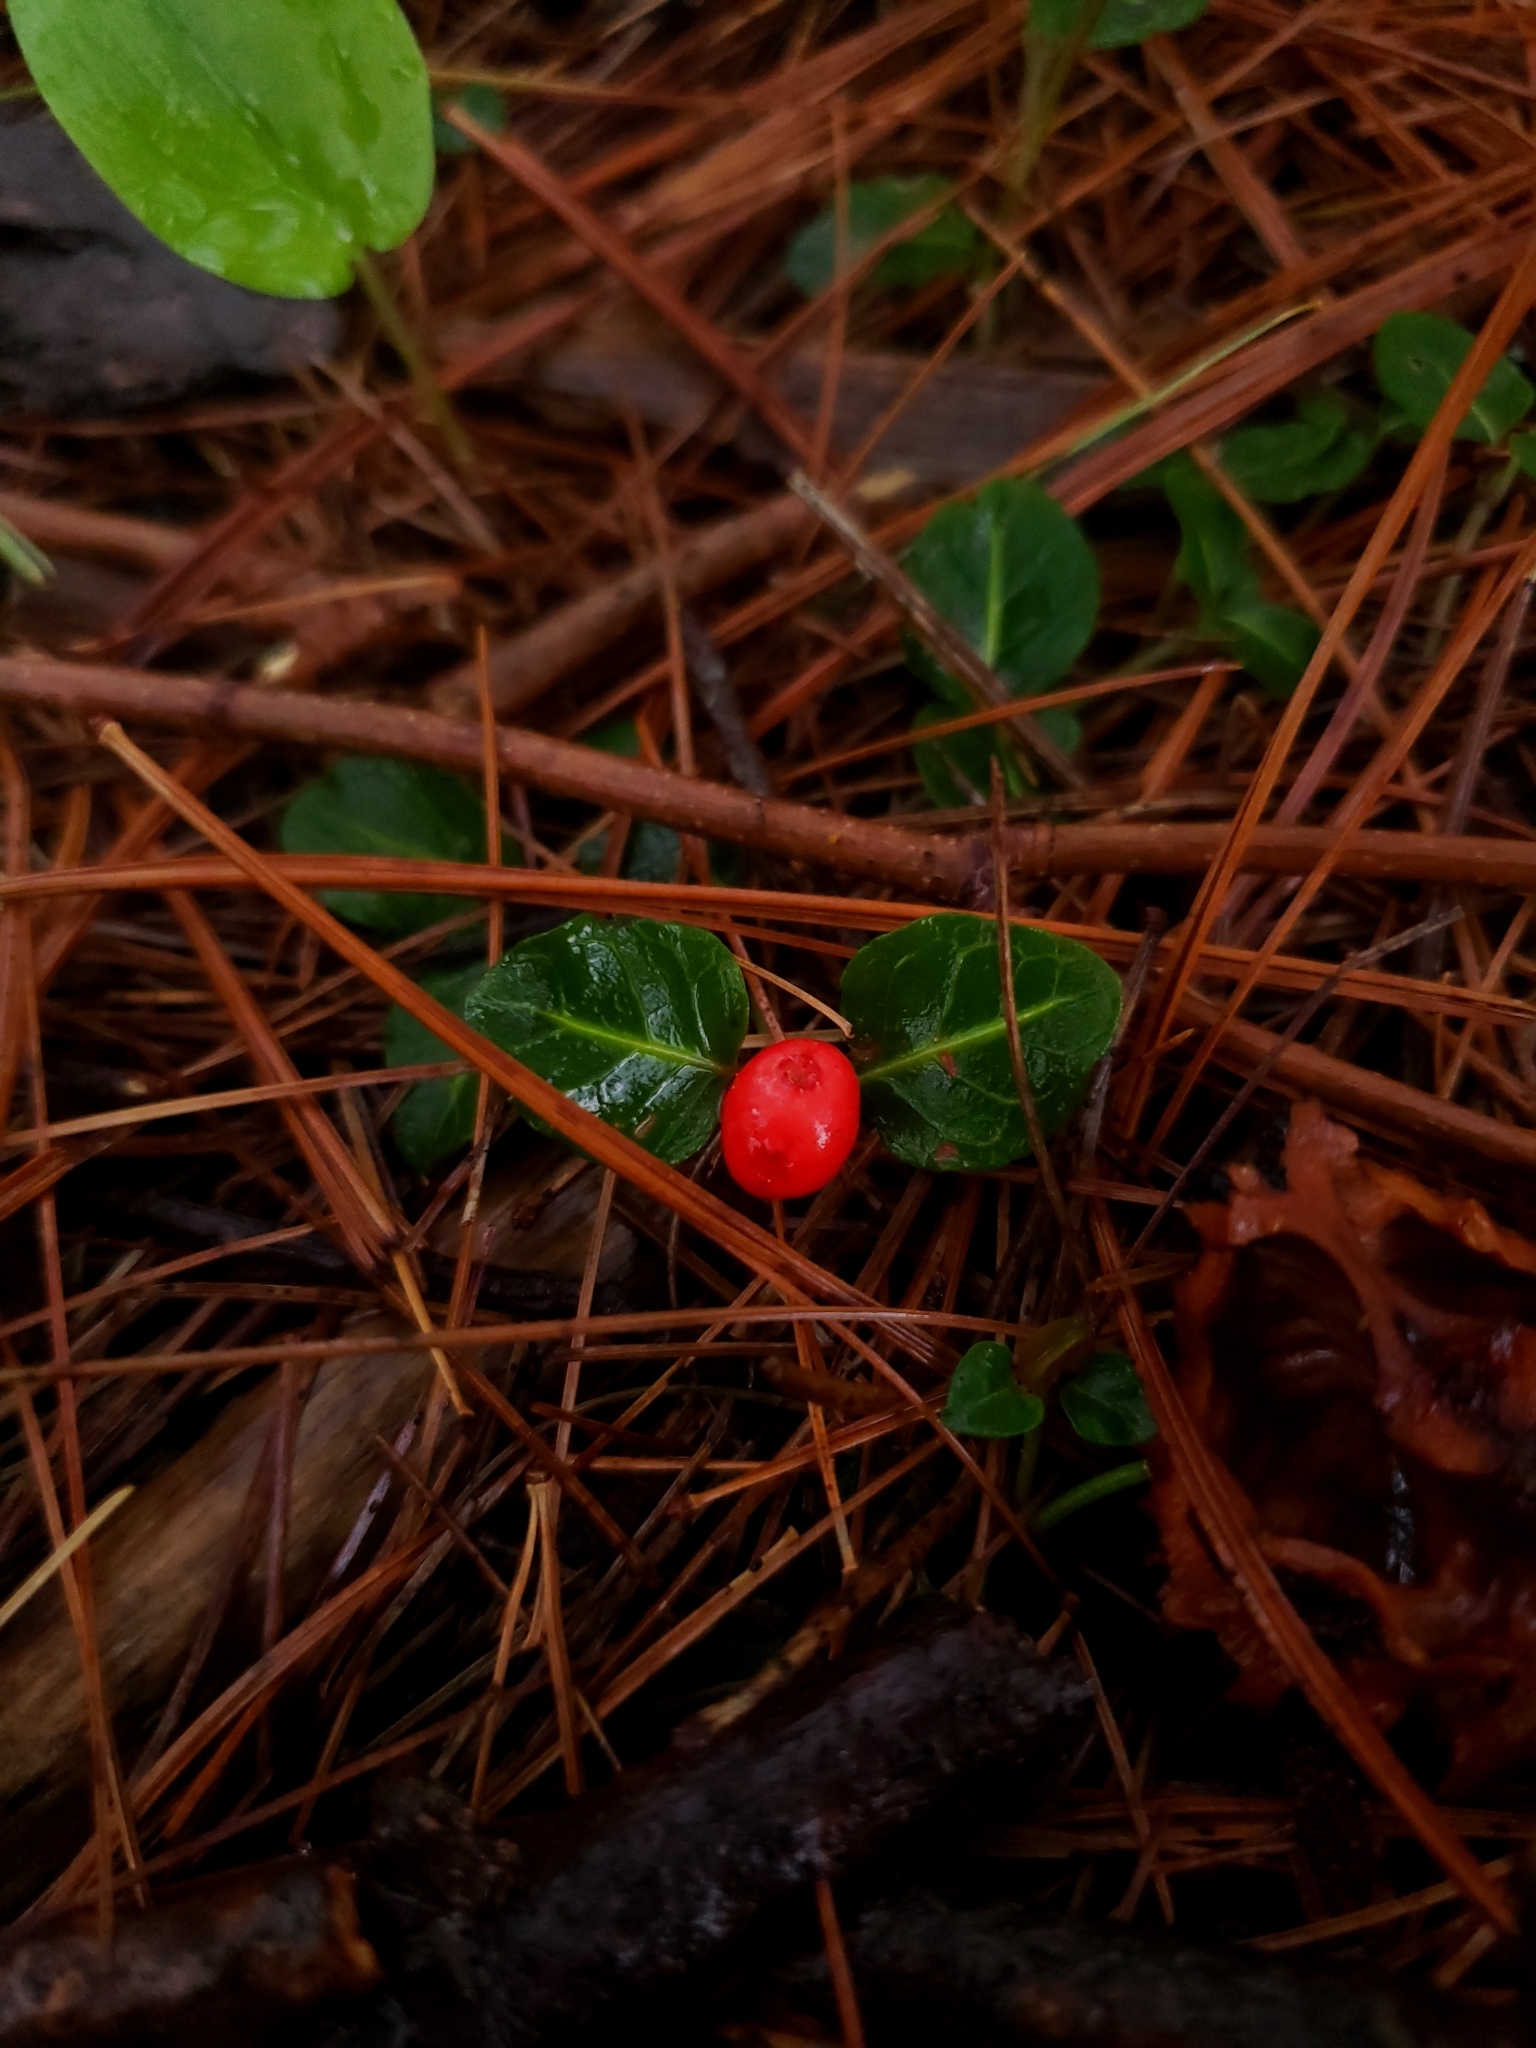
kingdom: Plantae
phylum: Tracheophyta
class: Magnoliopsida
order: Gentianales
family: Rubiaceae
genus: Mitchella
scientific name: Mitchella repens
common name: Partridge-berry
